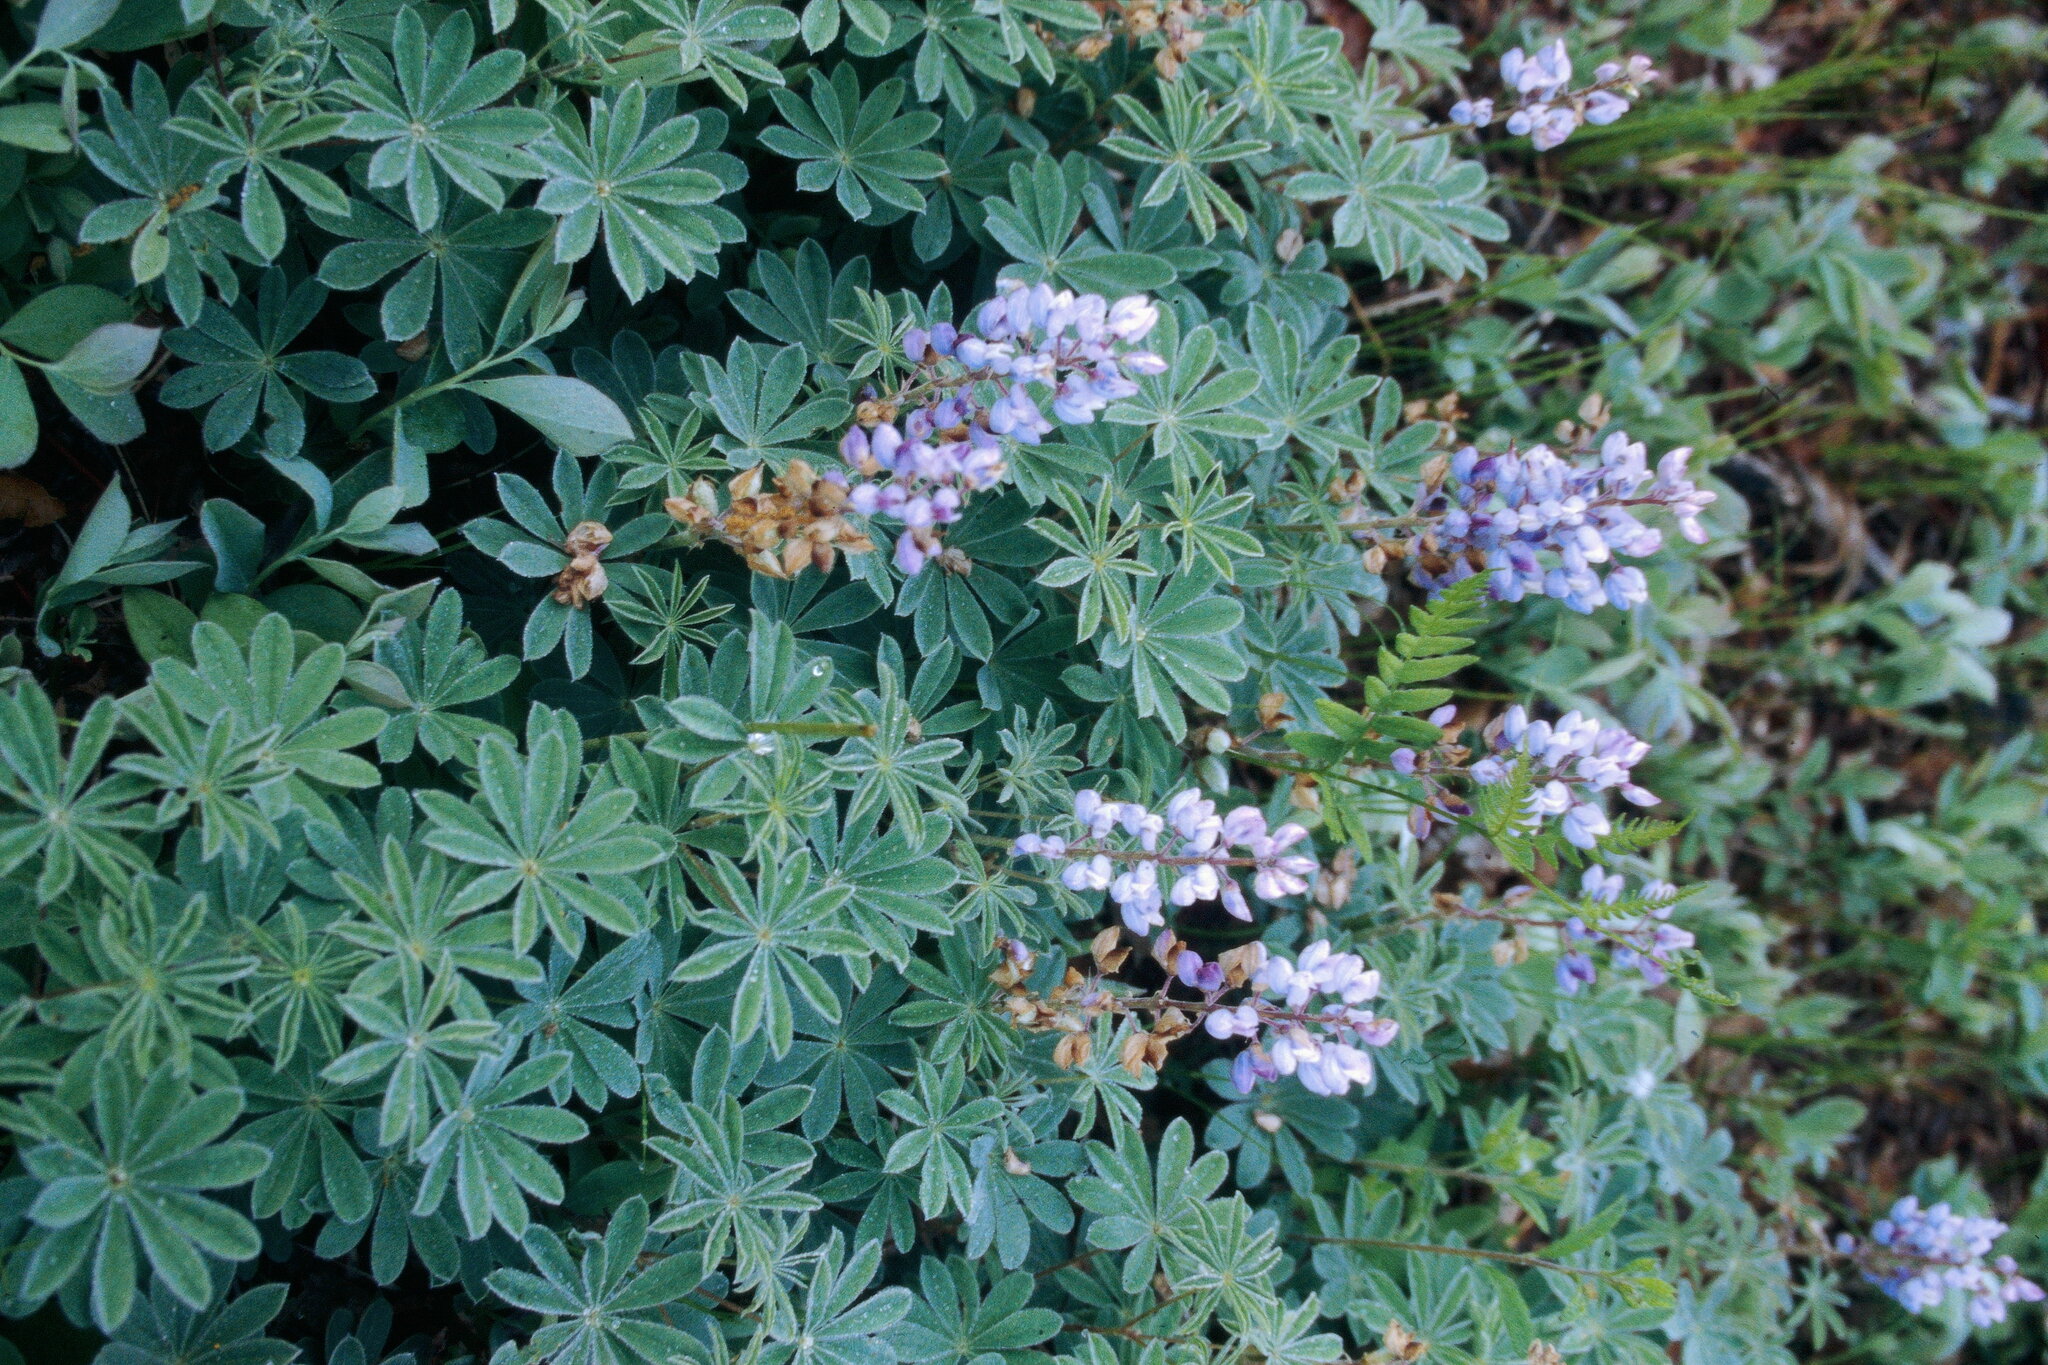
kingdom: Plantae
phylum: Tracheophyta
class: Magnoliopsida
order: Fabales
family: Fabaceae
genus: Lupinus
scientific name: Lupinus perennis
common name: Sundial lupine
